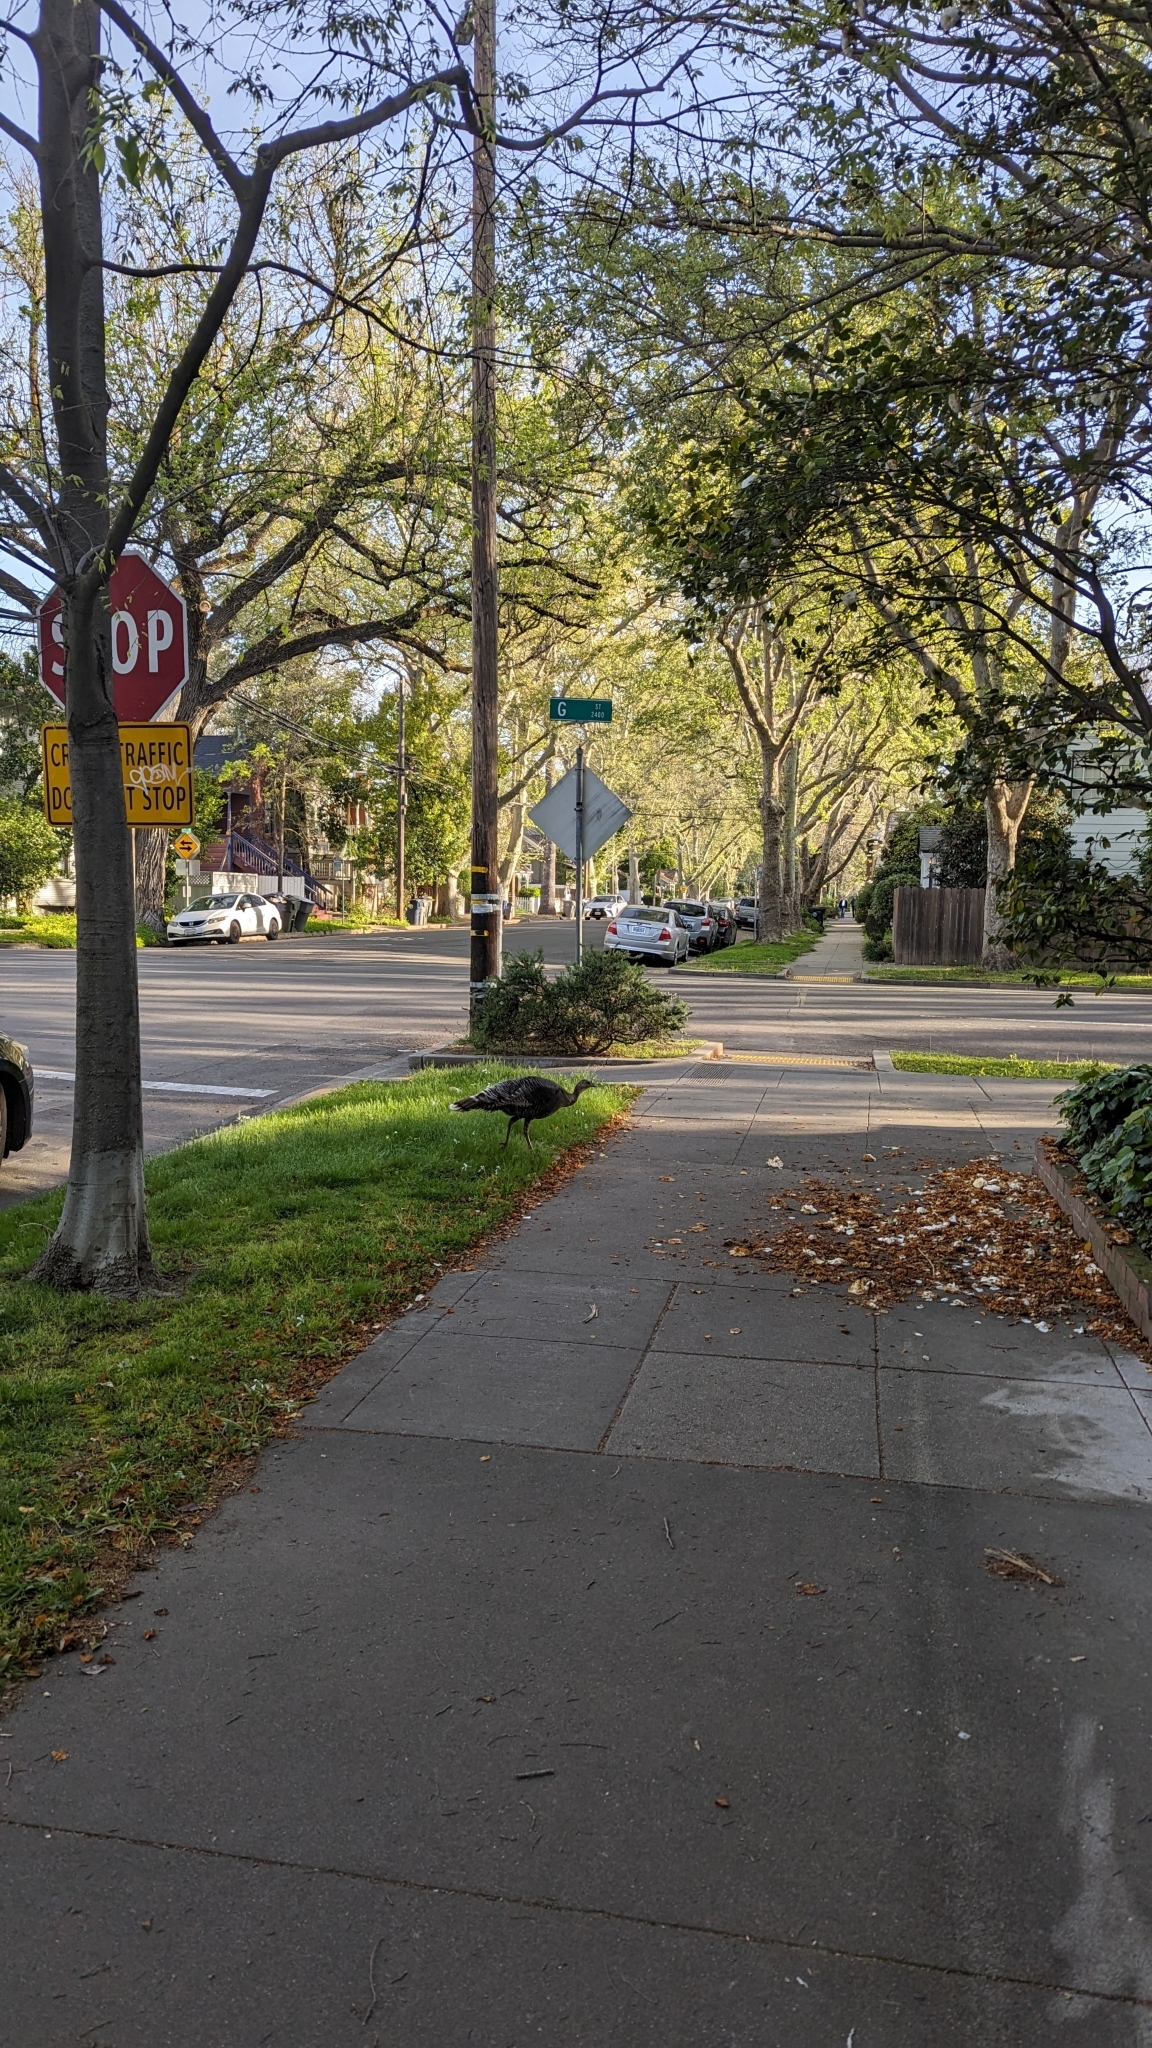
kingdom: Animalia
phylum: Chordata
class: Aves
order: Galliformes
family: Phasianidae
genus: Meleagris
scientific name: Meleagris gallopavo
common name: Wild turkey
